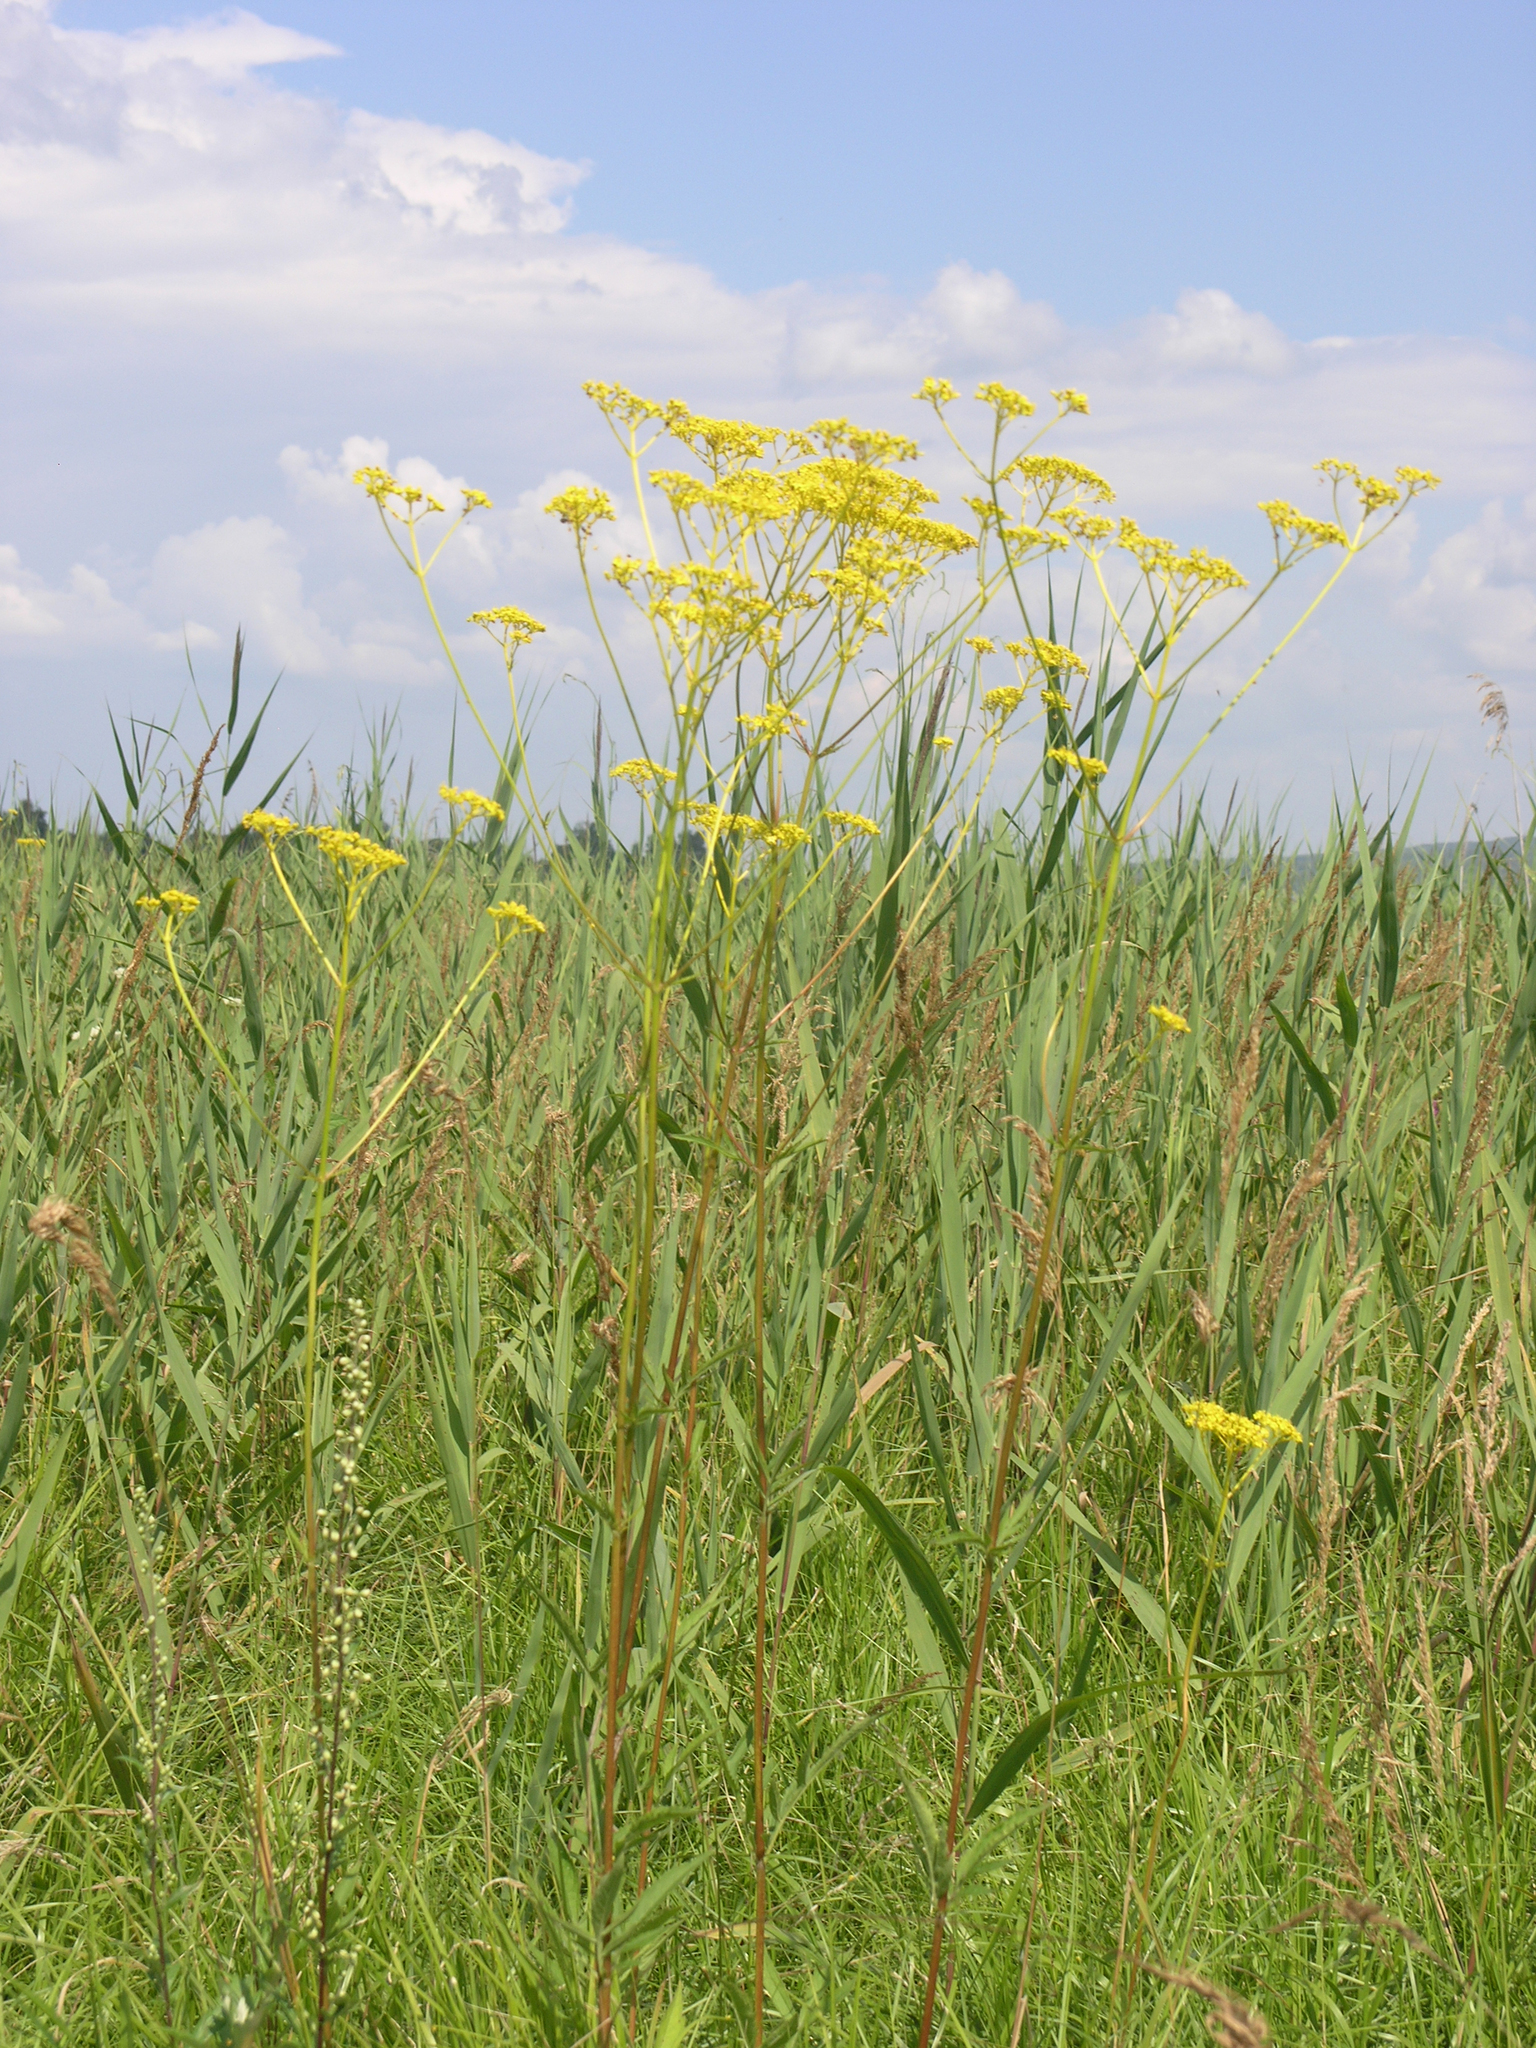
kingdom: Plantae
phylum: Tracheophyta
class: Magnoliopsida
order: Dipsacales
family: Caprifoliaceae
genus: Patrinia
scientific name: Patrinia scabiosifolia
